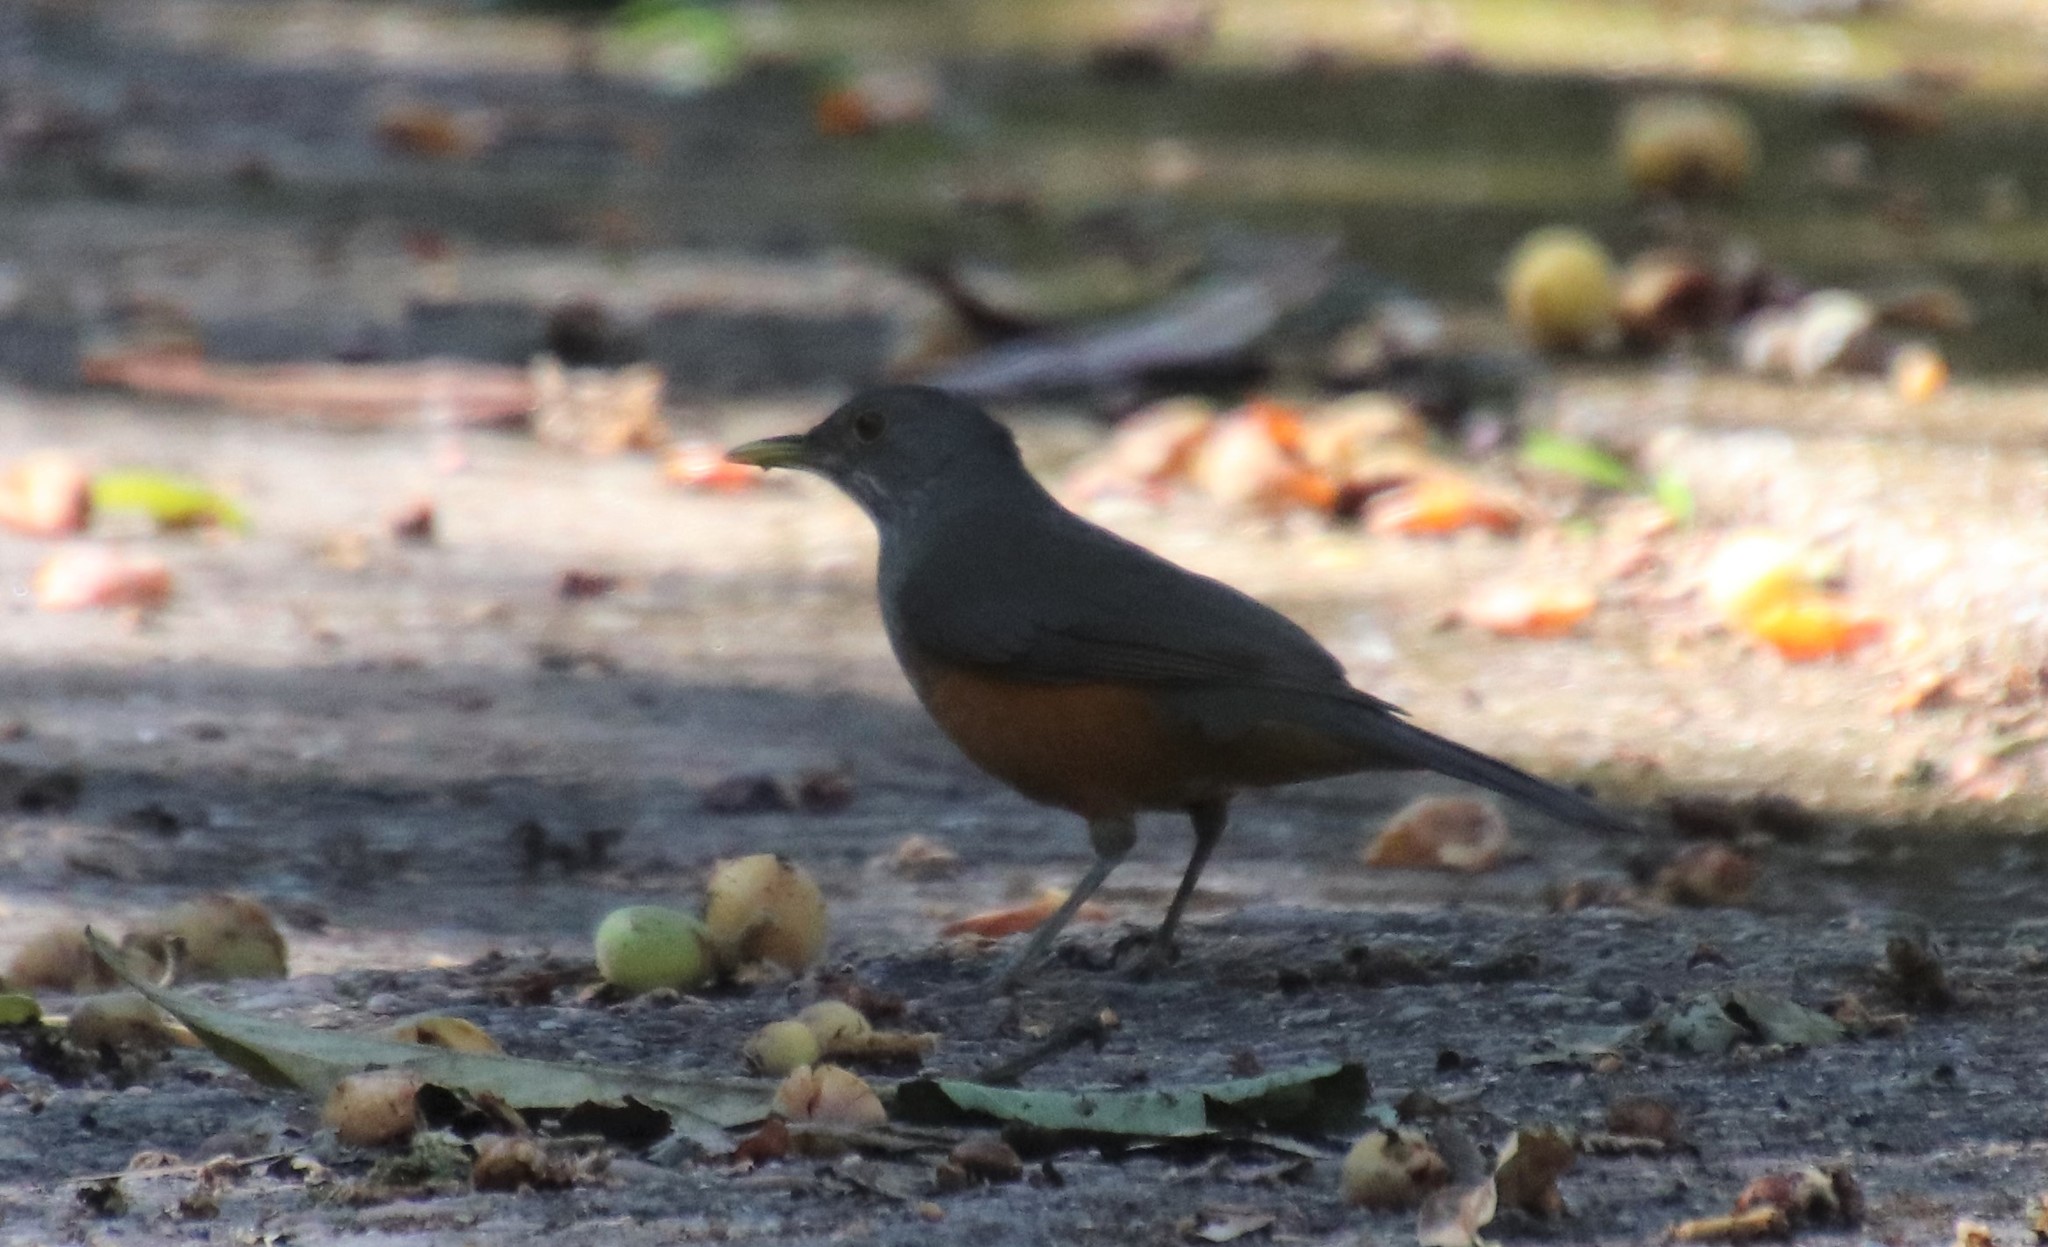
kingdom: Animalia
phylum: Chordata
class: Aves
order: Passeriformes
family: Turdidae
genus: Turdus
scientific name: Turdus rufiventris
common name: Rufous-bellied thrush
